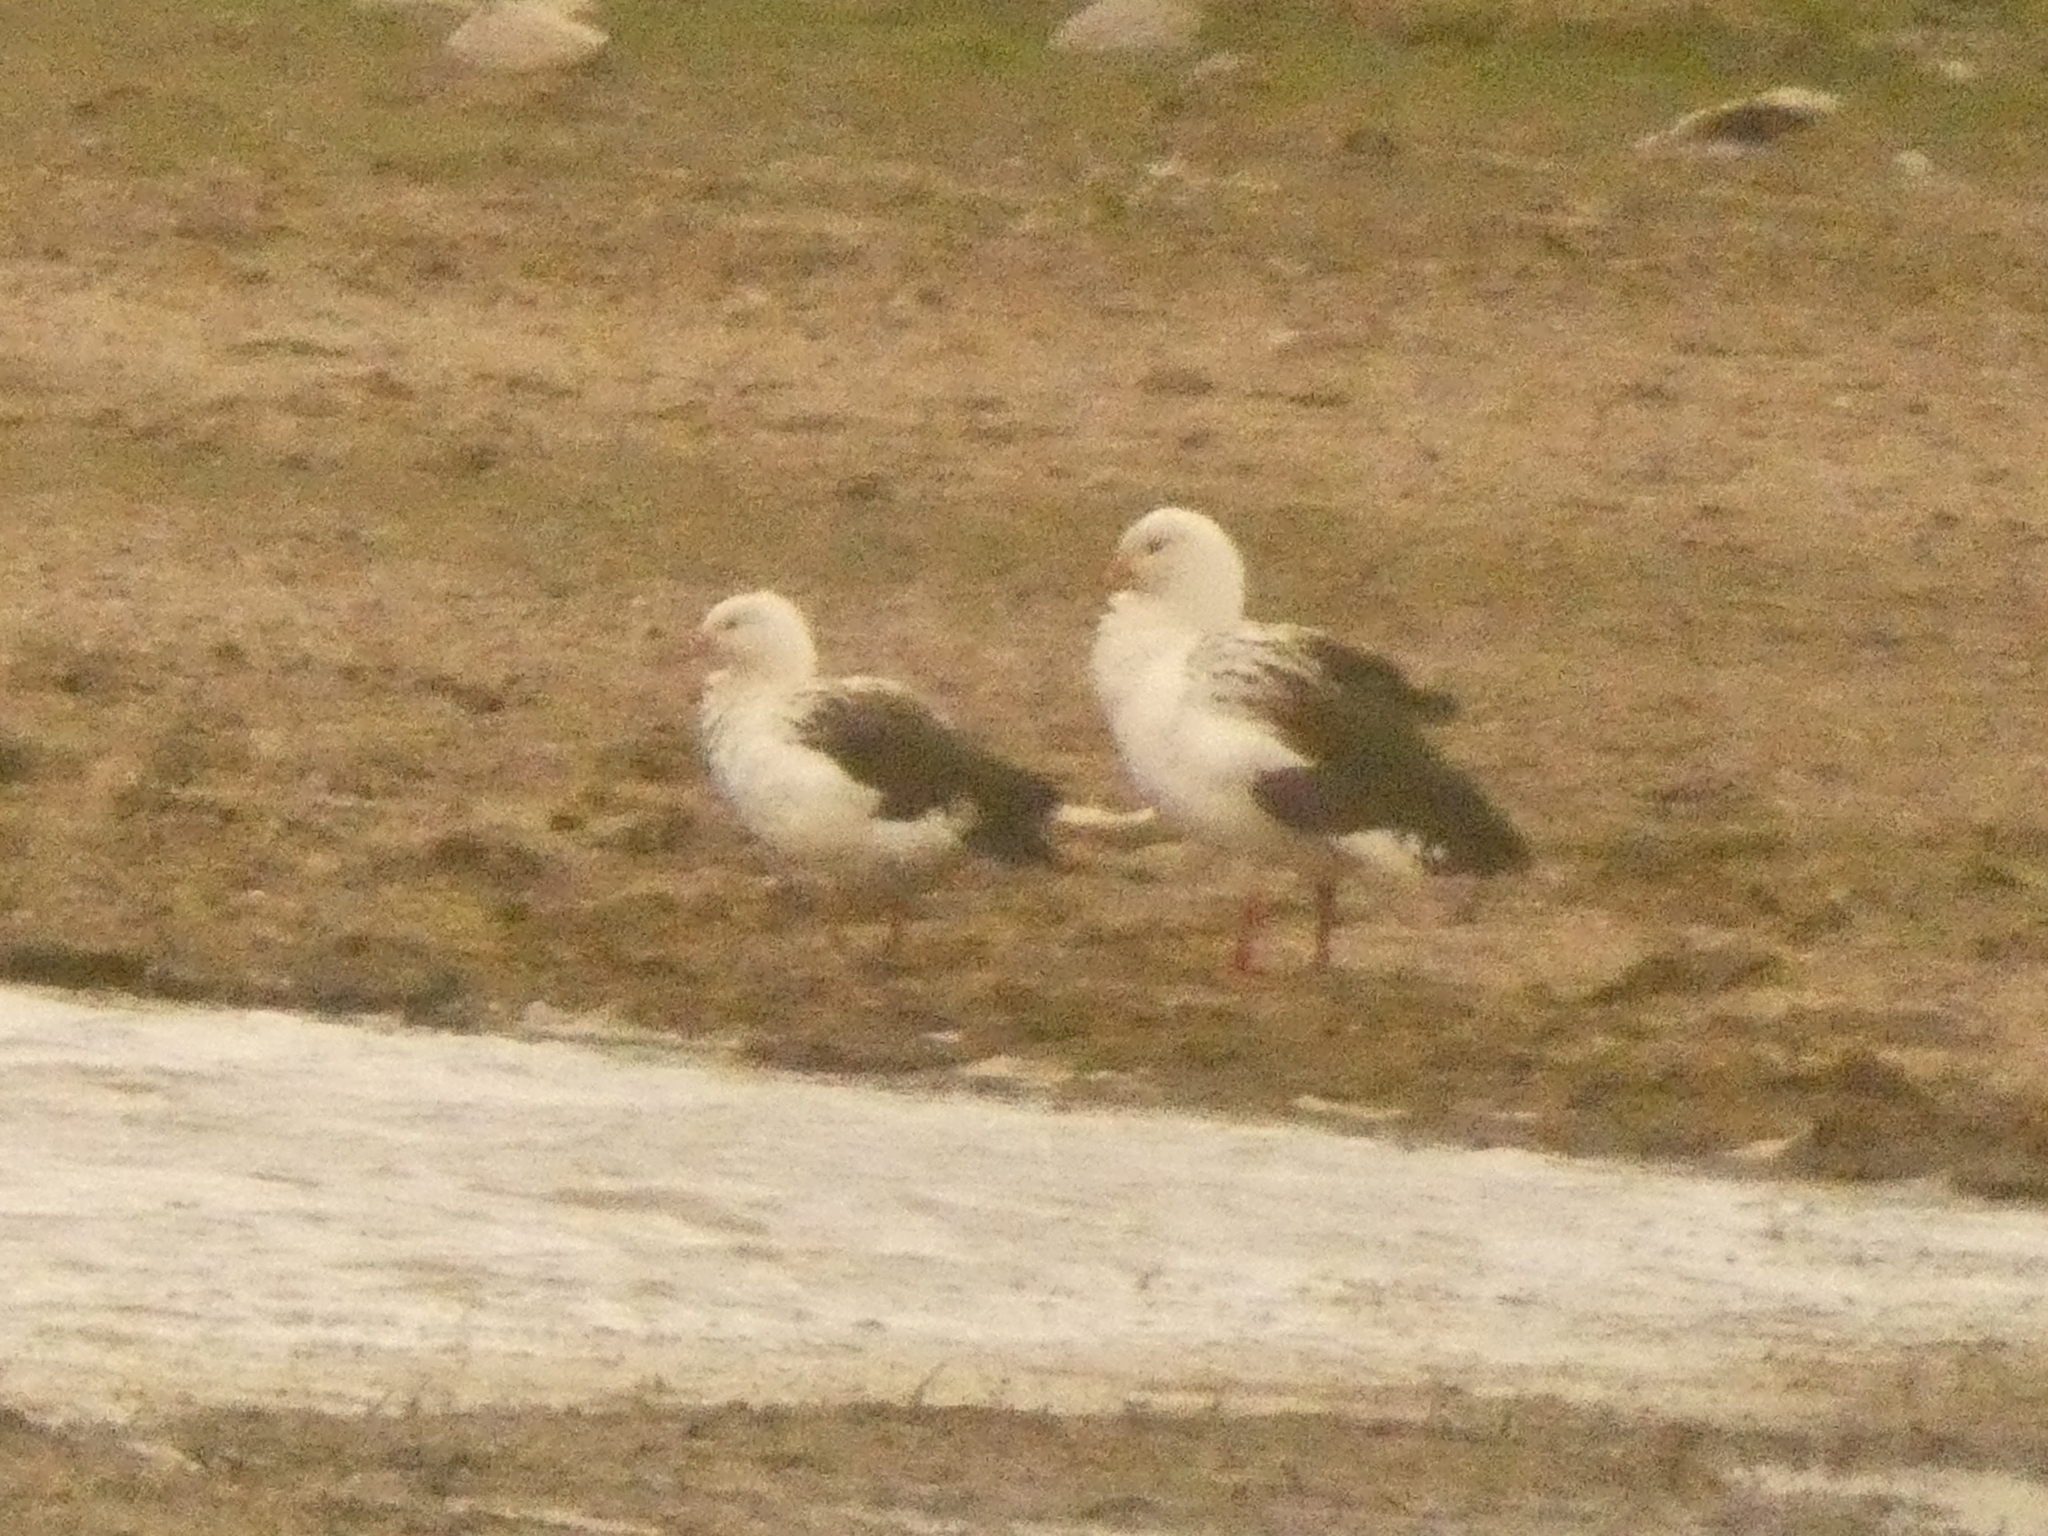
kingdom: Animalia
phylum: Chordata
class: Aves
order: Anseriformes
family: Anatidae
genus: Chloephaga
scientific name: Chloephaga melanoptera
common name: Andean goose
